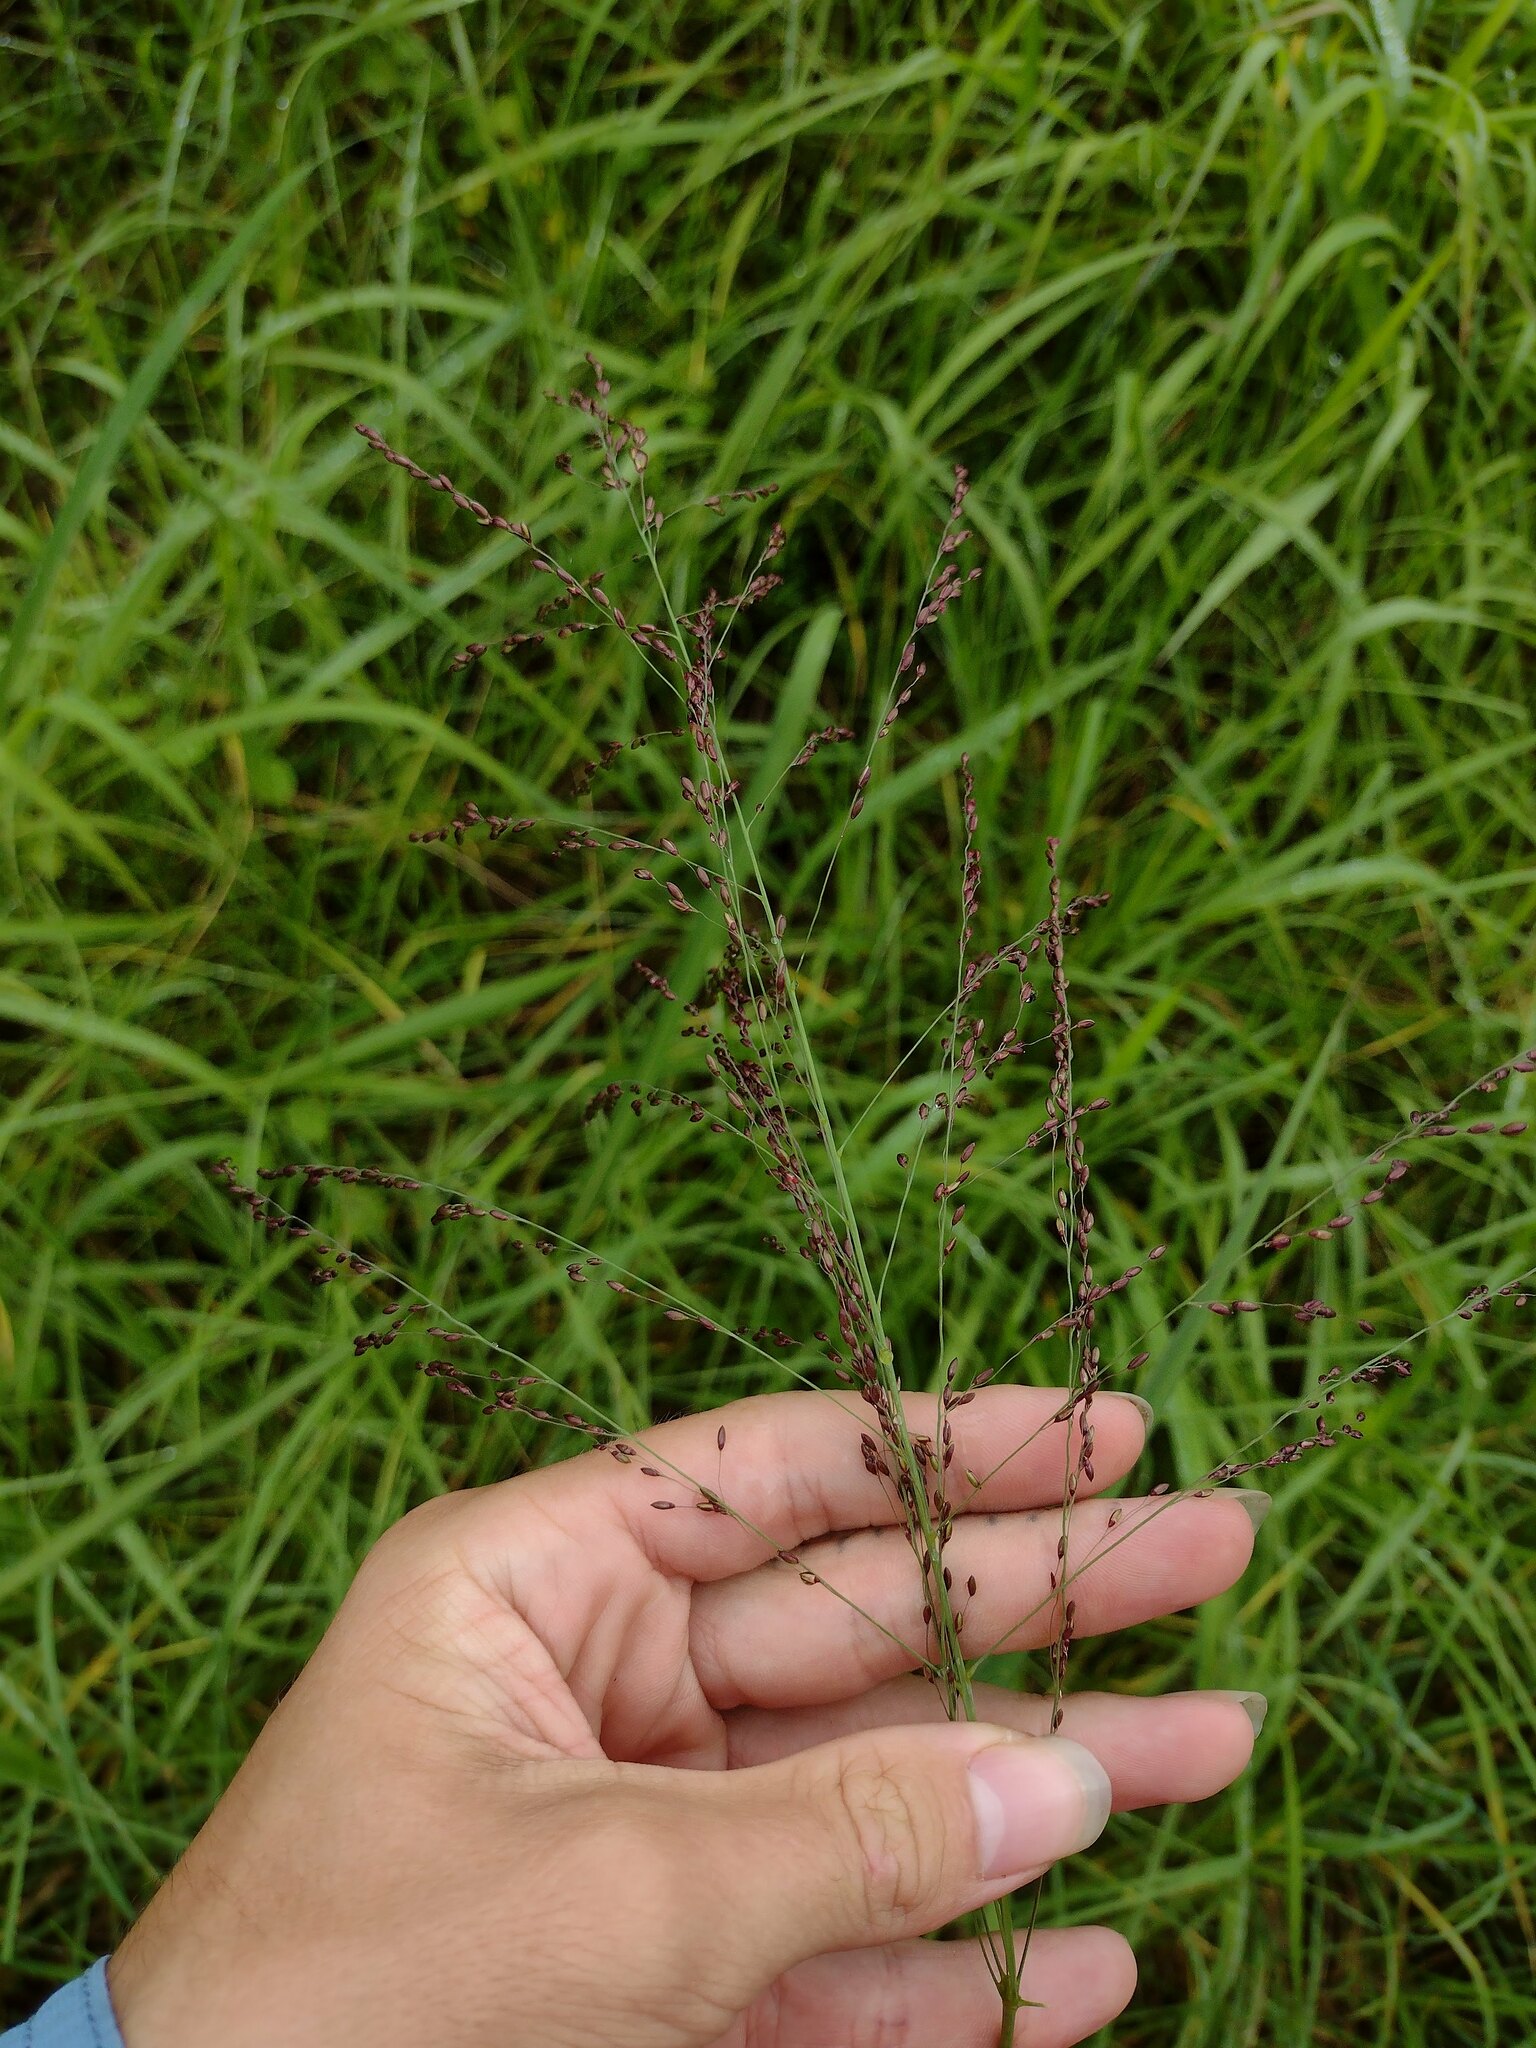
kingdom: Plantae
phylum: Tracheophyta
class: Liliopsida
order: Poales
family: Poaceae
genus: Megathyrsus
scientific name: Megathyrsus maximus
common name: Guineagrass
